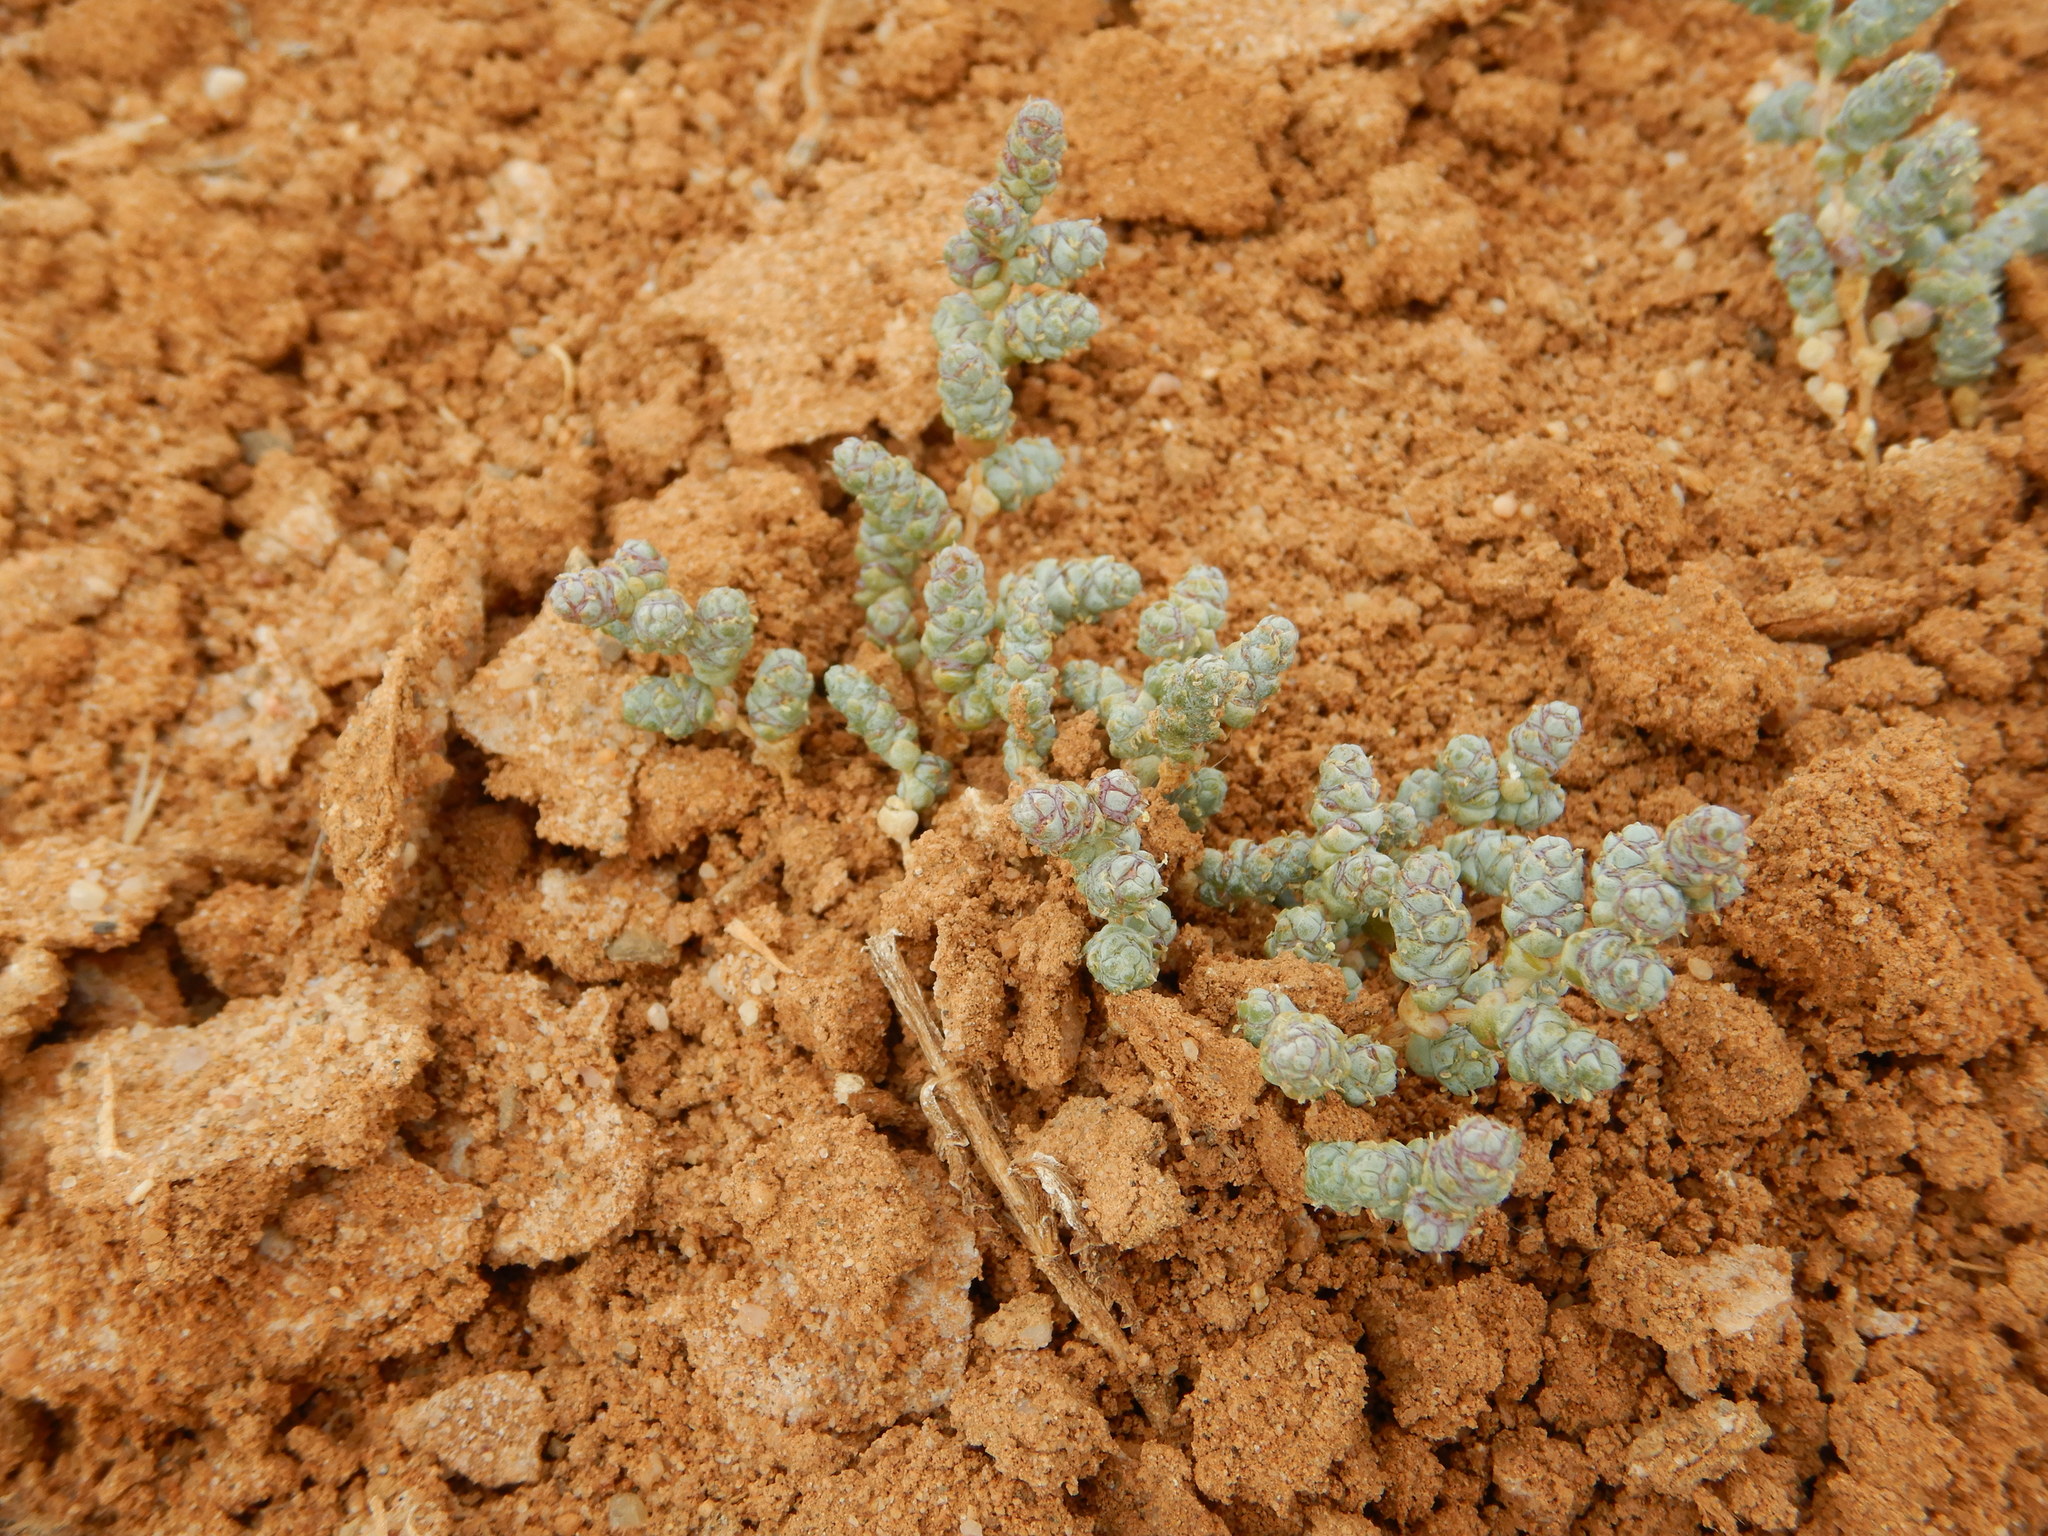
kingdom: Plantae
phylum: Tracheophyta
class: Magnoliopsida
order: Caryophyllales
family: Amaranthaceae
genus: Halopeplis
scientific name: Halopeplis amplexicaulis
